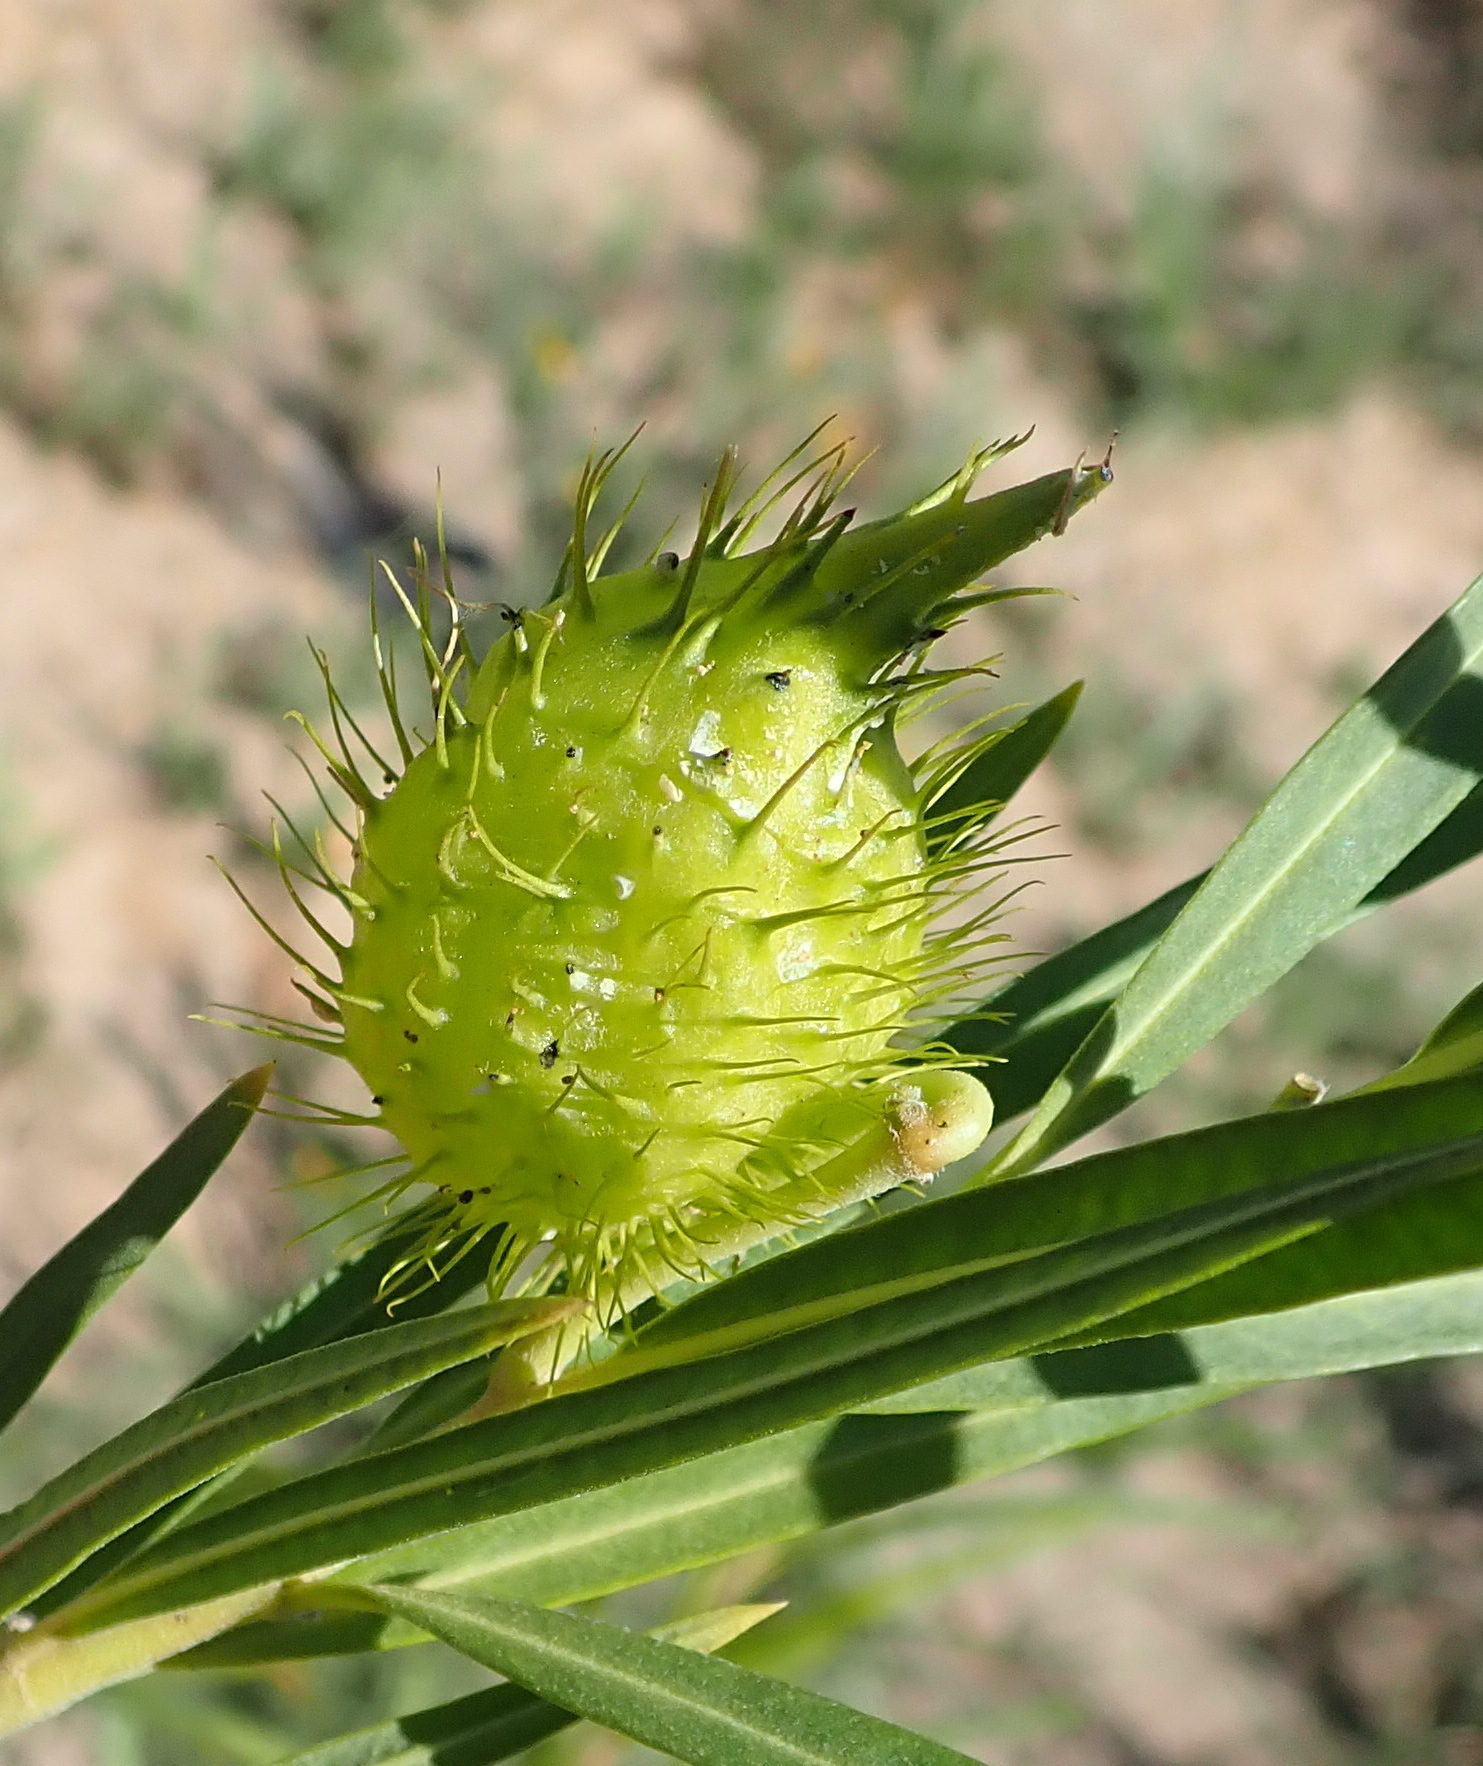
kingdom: Plantae
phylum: Tracheophyta
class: Magnoliopsida
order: Gentianales
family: Apocynaceae
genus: Gomphocarpus
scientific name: Gomphocarpus fruticosus
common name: Milkweed
